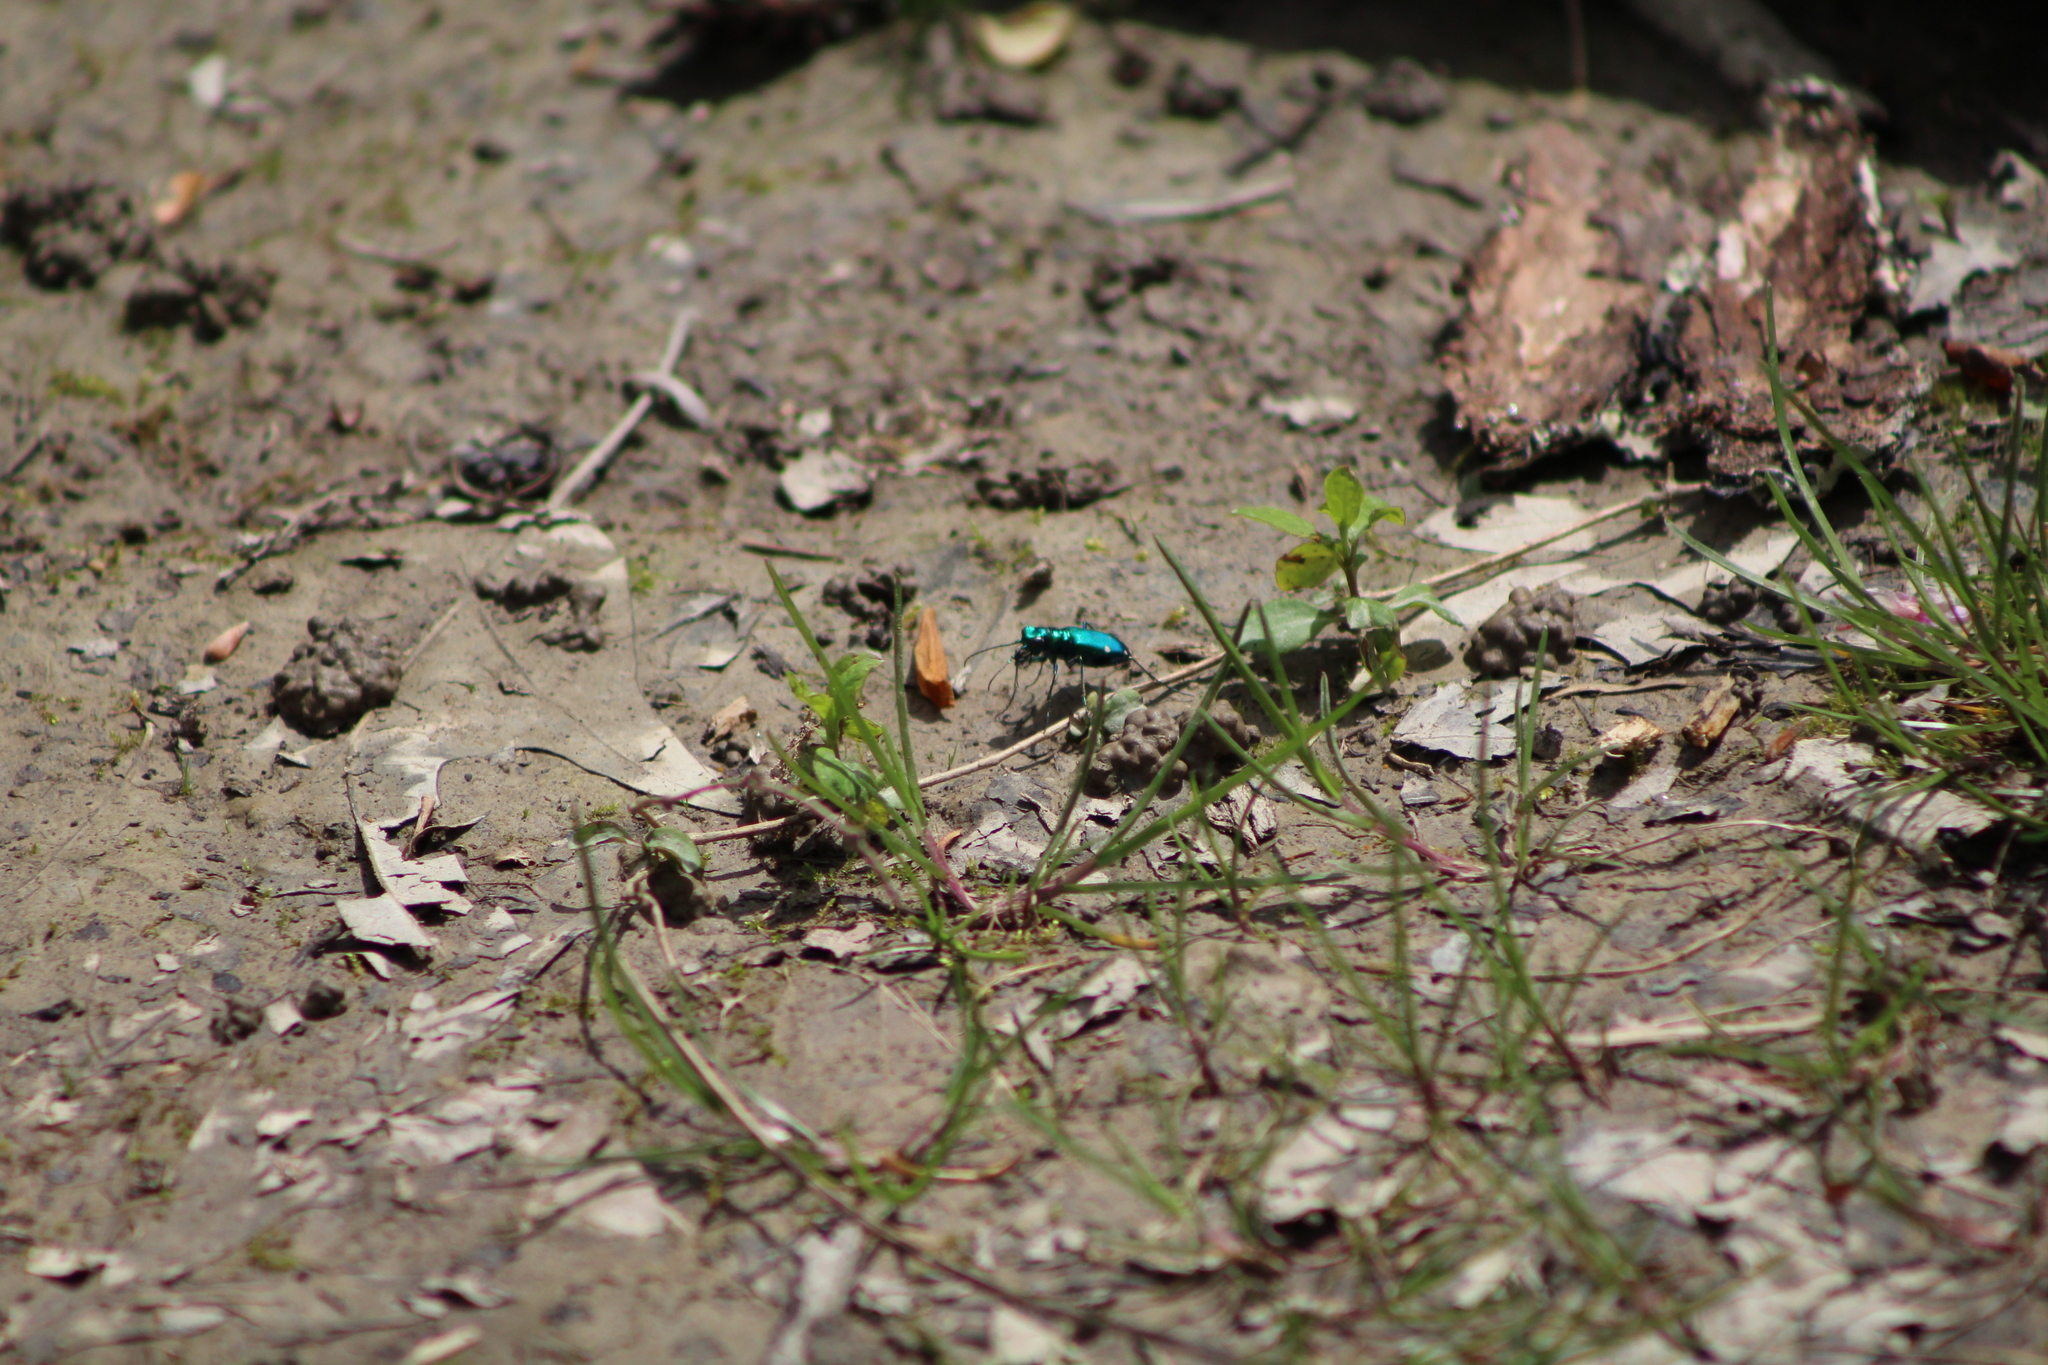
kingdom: Animalia
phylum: Arthropoda
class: Insecta
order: Coleoptera
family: Carabidae
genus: Cicindela
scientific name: Cicindela sexguttata
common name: Six-spotted tiger beetle
